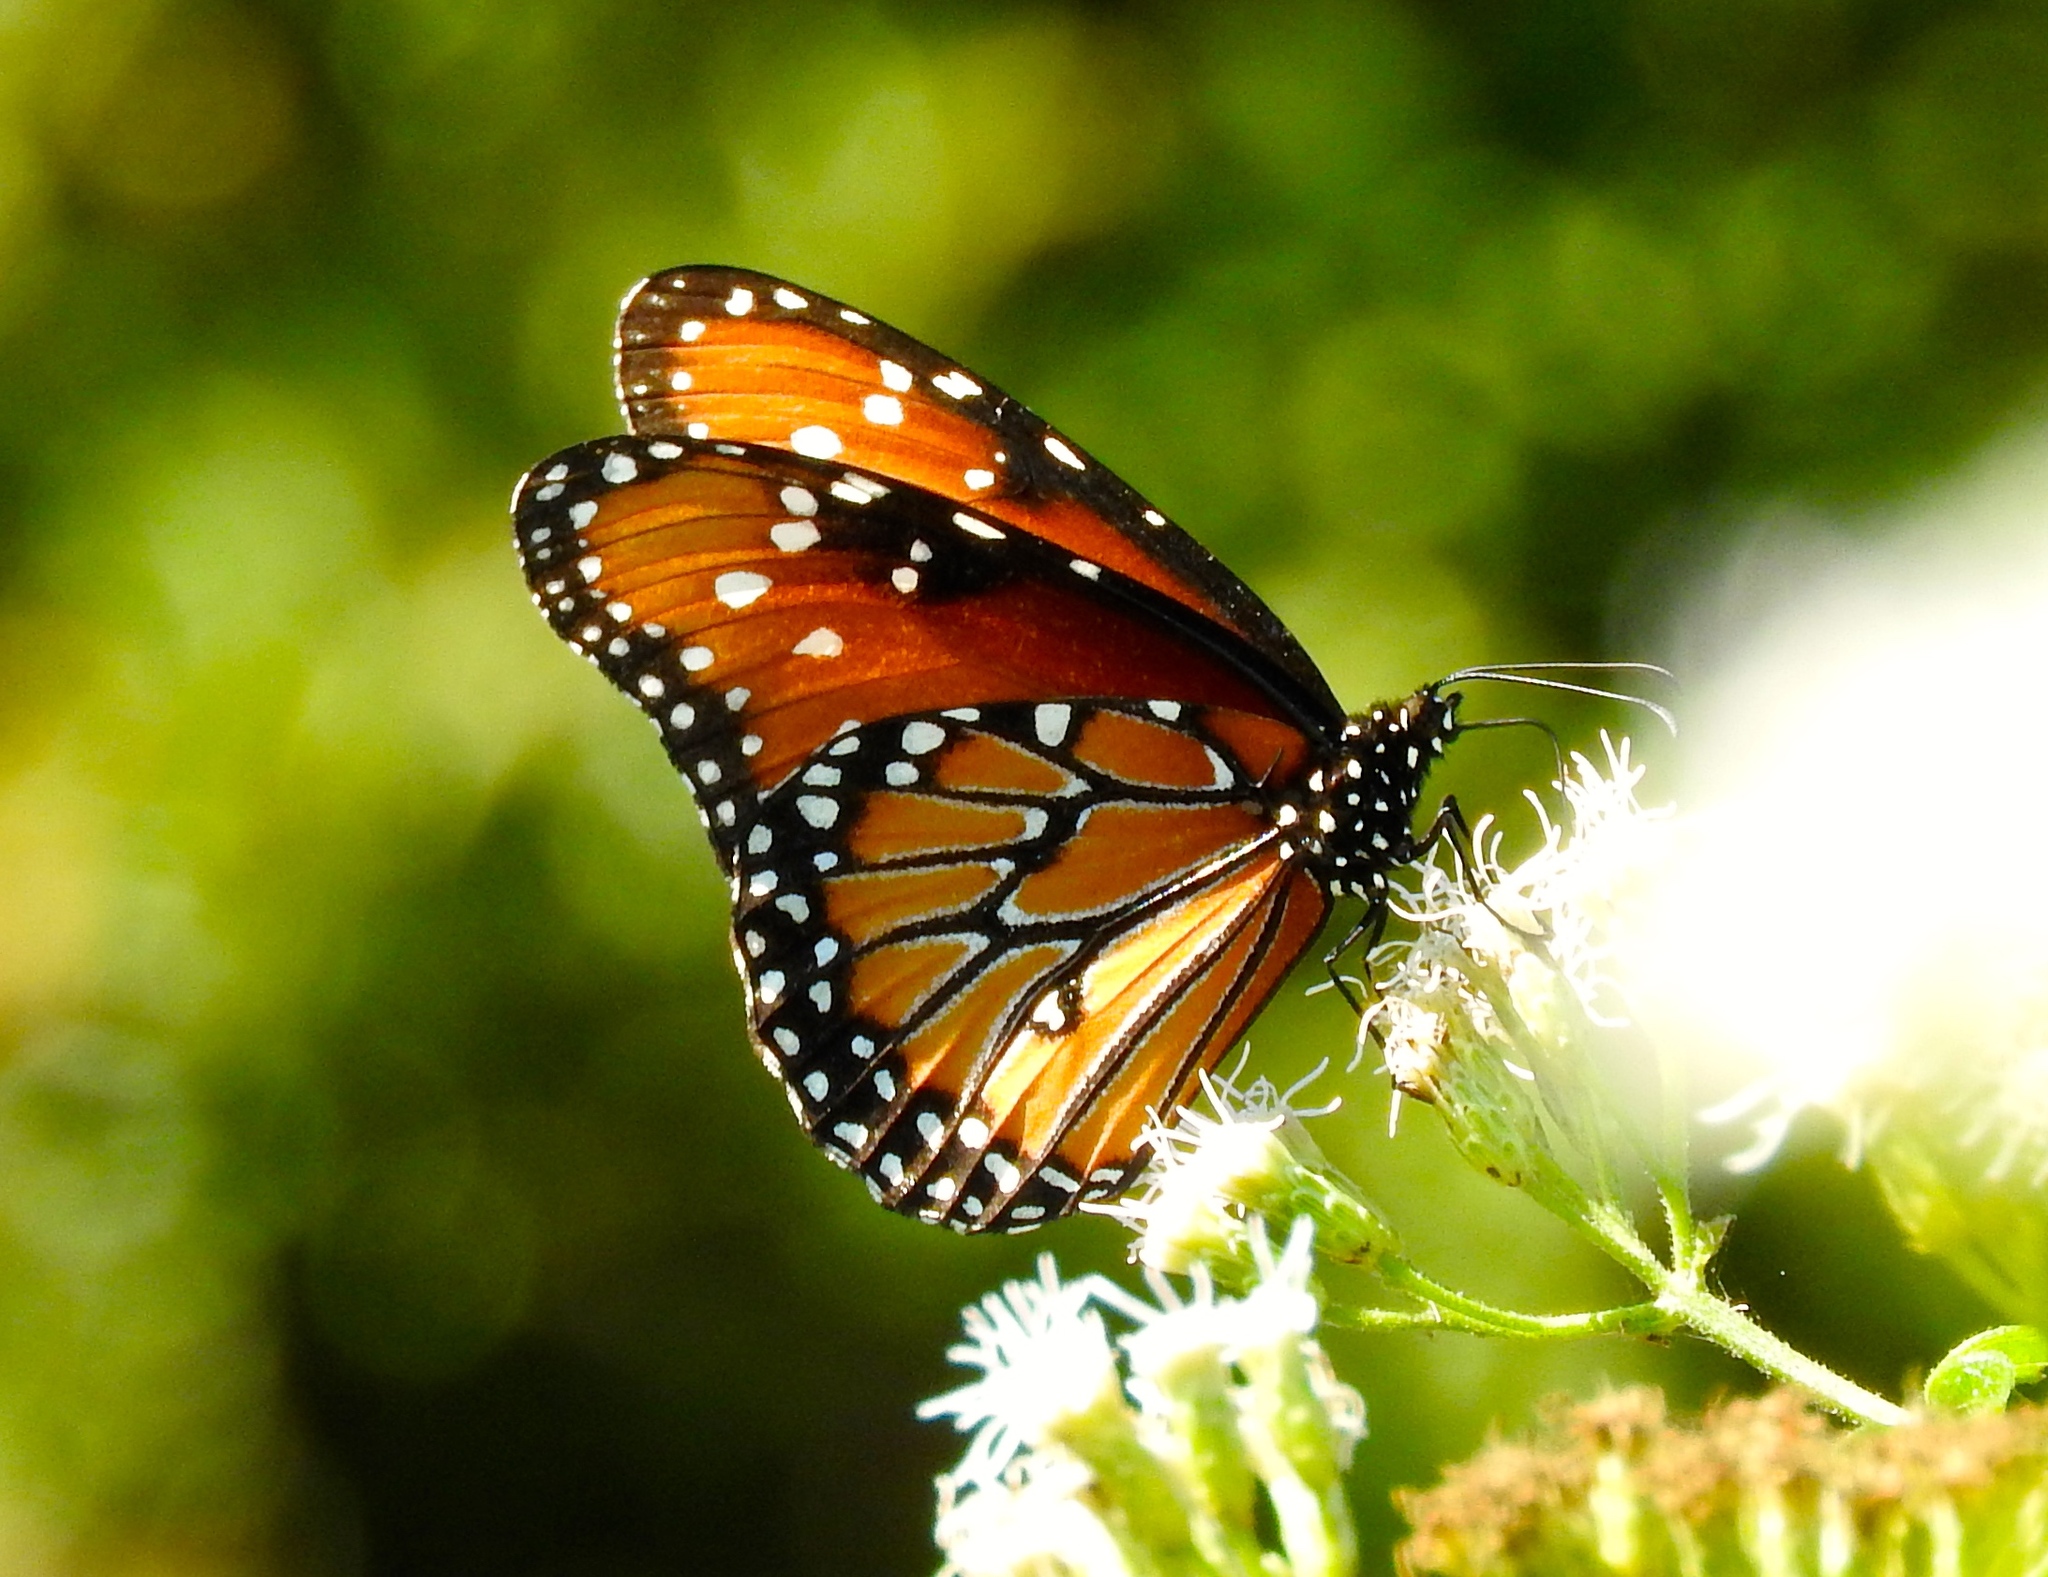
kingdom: Animalia
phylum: Arthropoda
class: Insecta
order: Lepidoptera
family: Nymphalidae
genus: Danaus
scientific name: Danaus gilippus
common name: Queen
